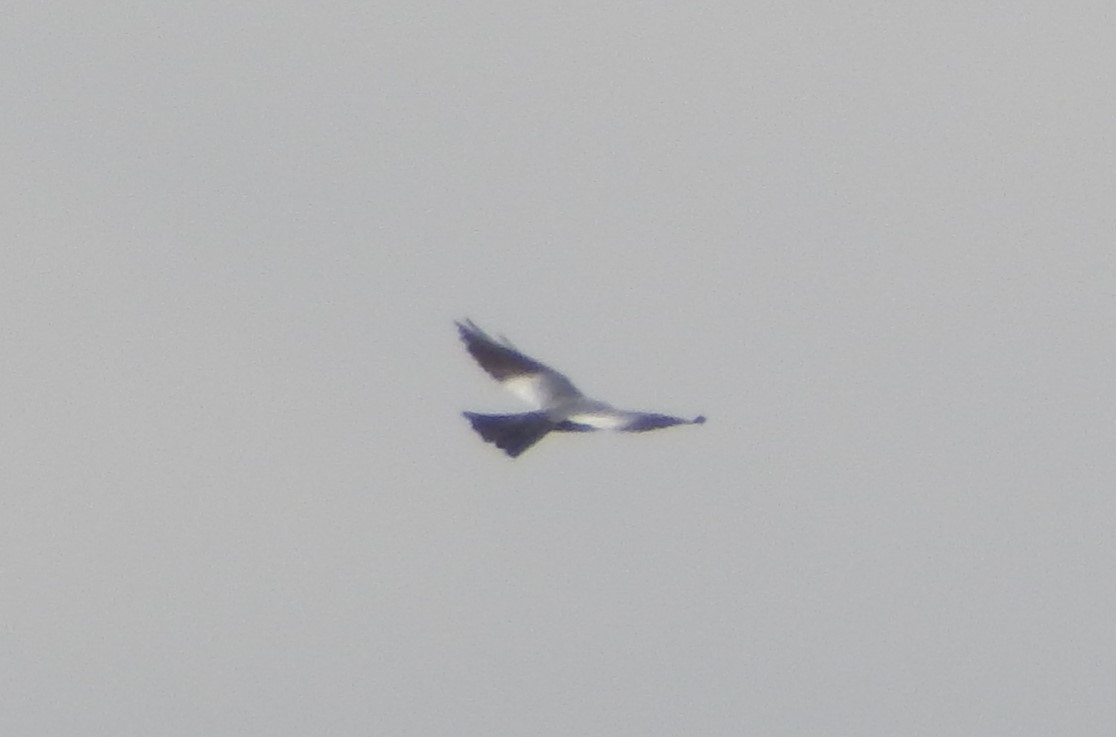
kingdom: Animalia
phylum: Chordata
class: Aves
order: Accipitriformes
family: Accipitridae
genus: Ictinia
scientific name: Ictinia mississippiensis
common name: Mississippi kite
